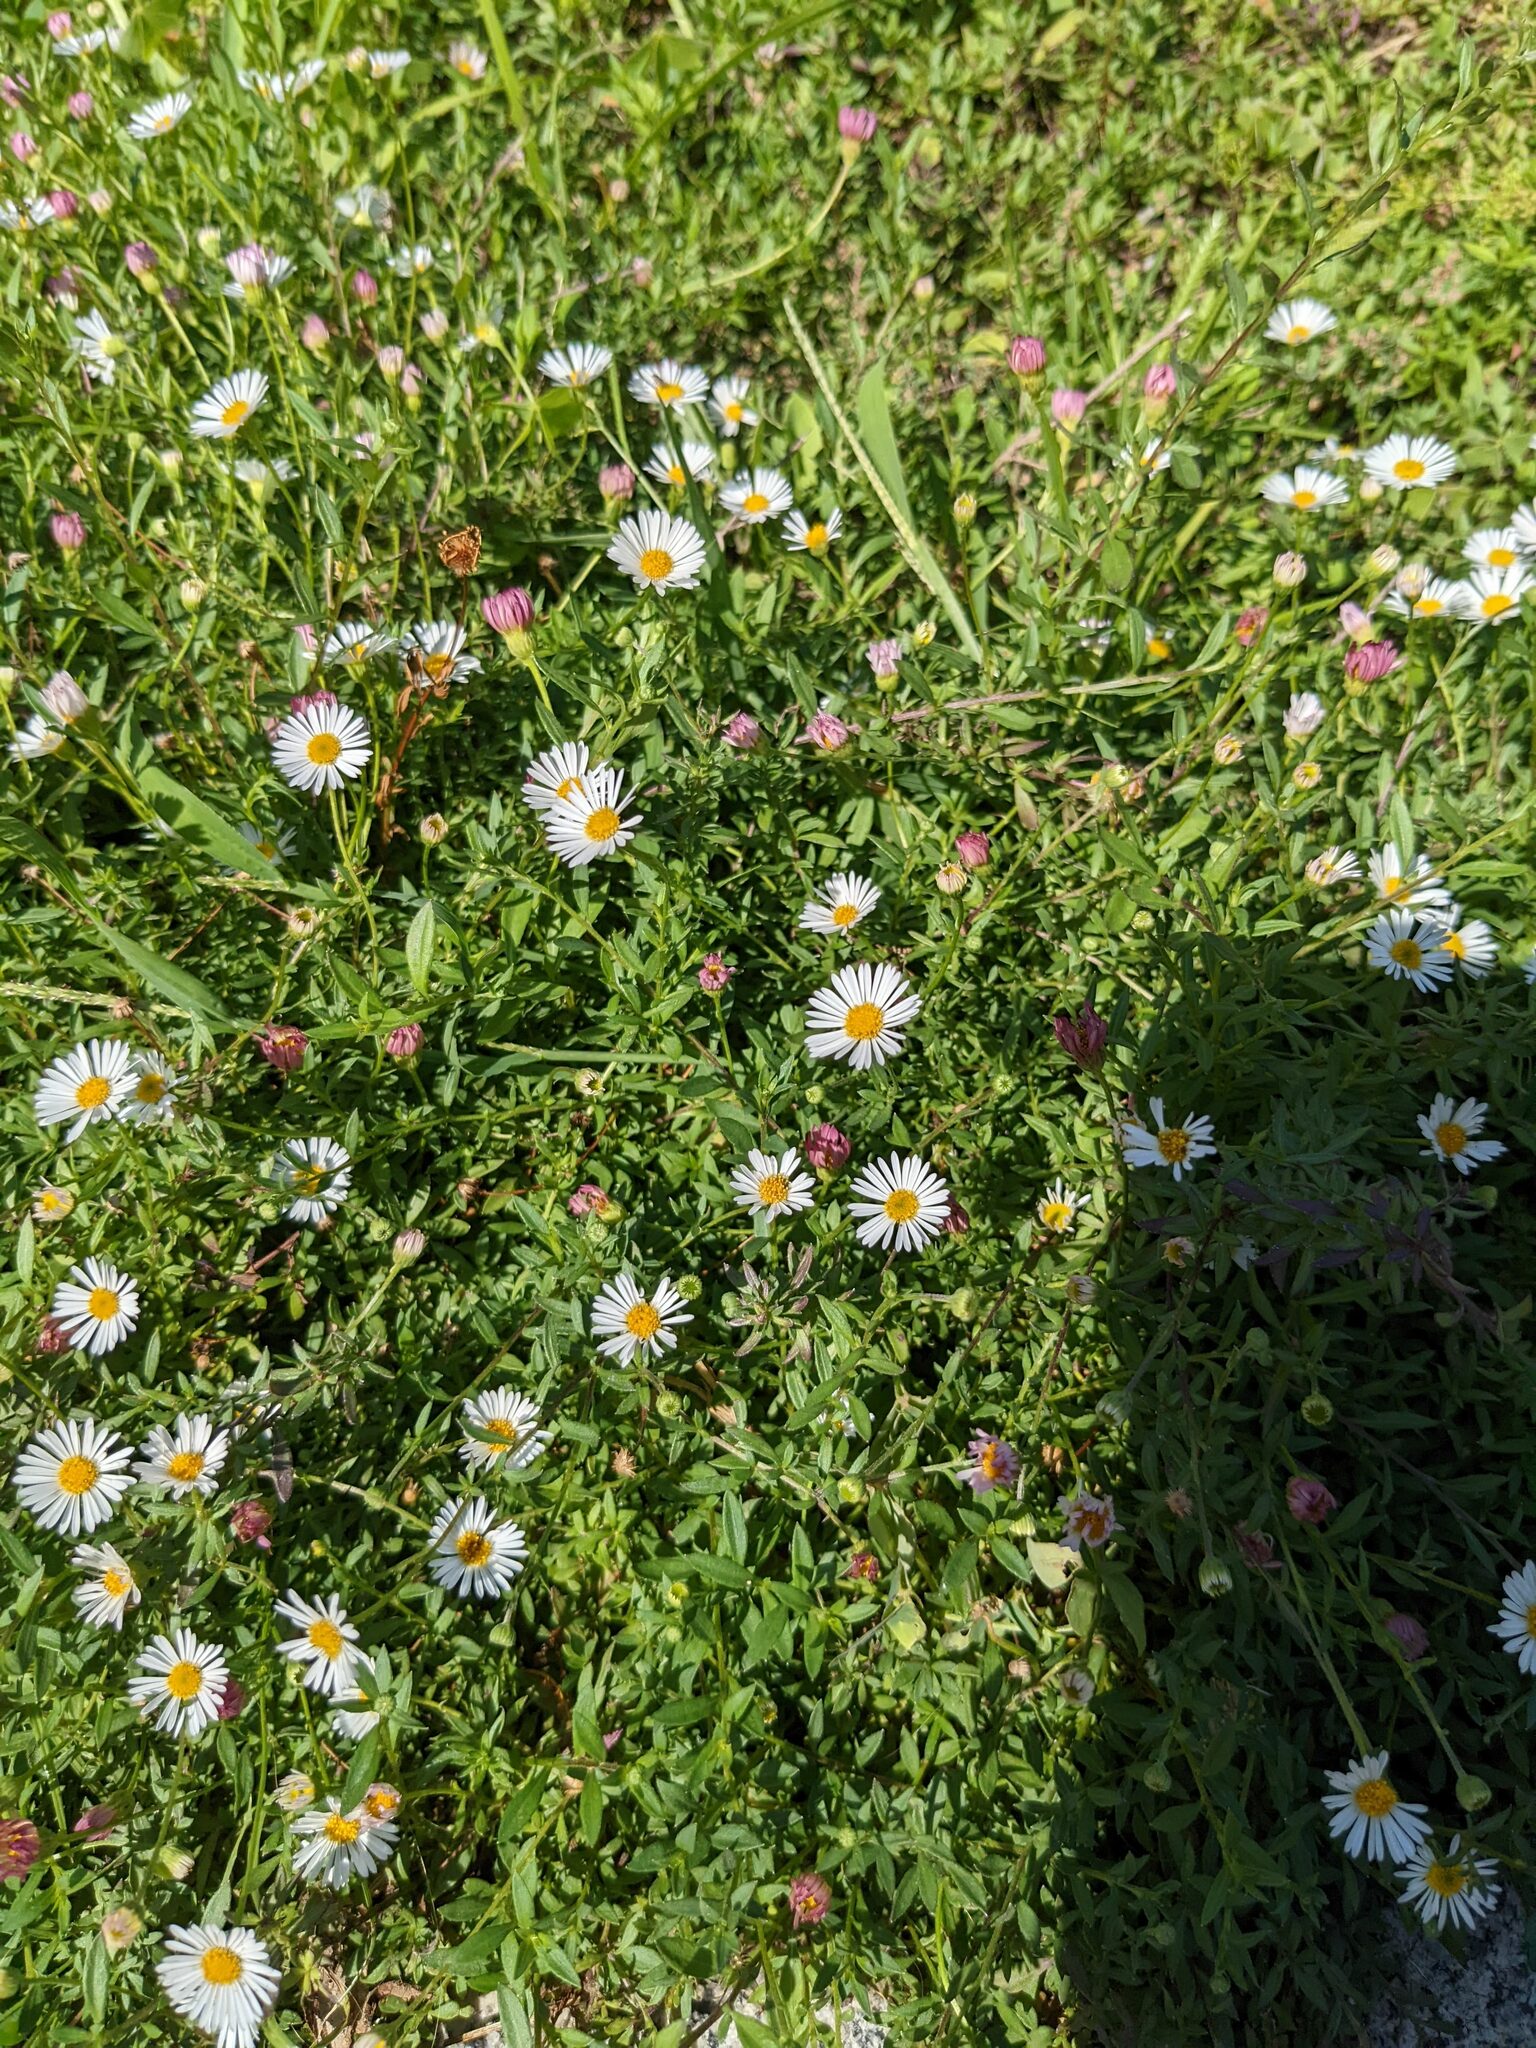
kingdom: Plantae
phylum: Tracheophyta
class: Magnoliopsida
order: Asterales
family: Asteraceae
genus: Erigeron
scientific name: Erigeron karvinskianus
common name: Mexican fleabane
